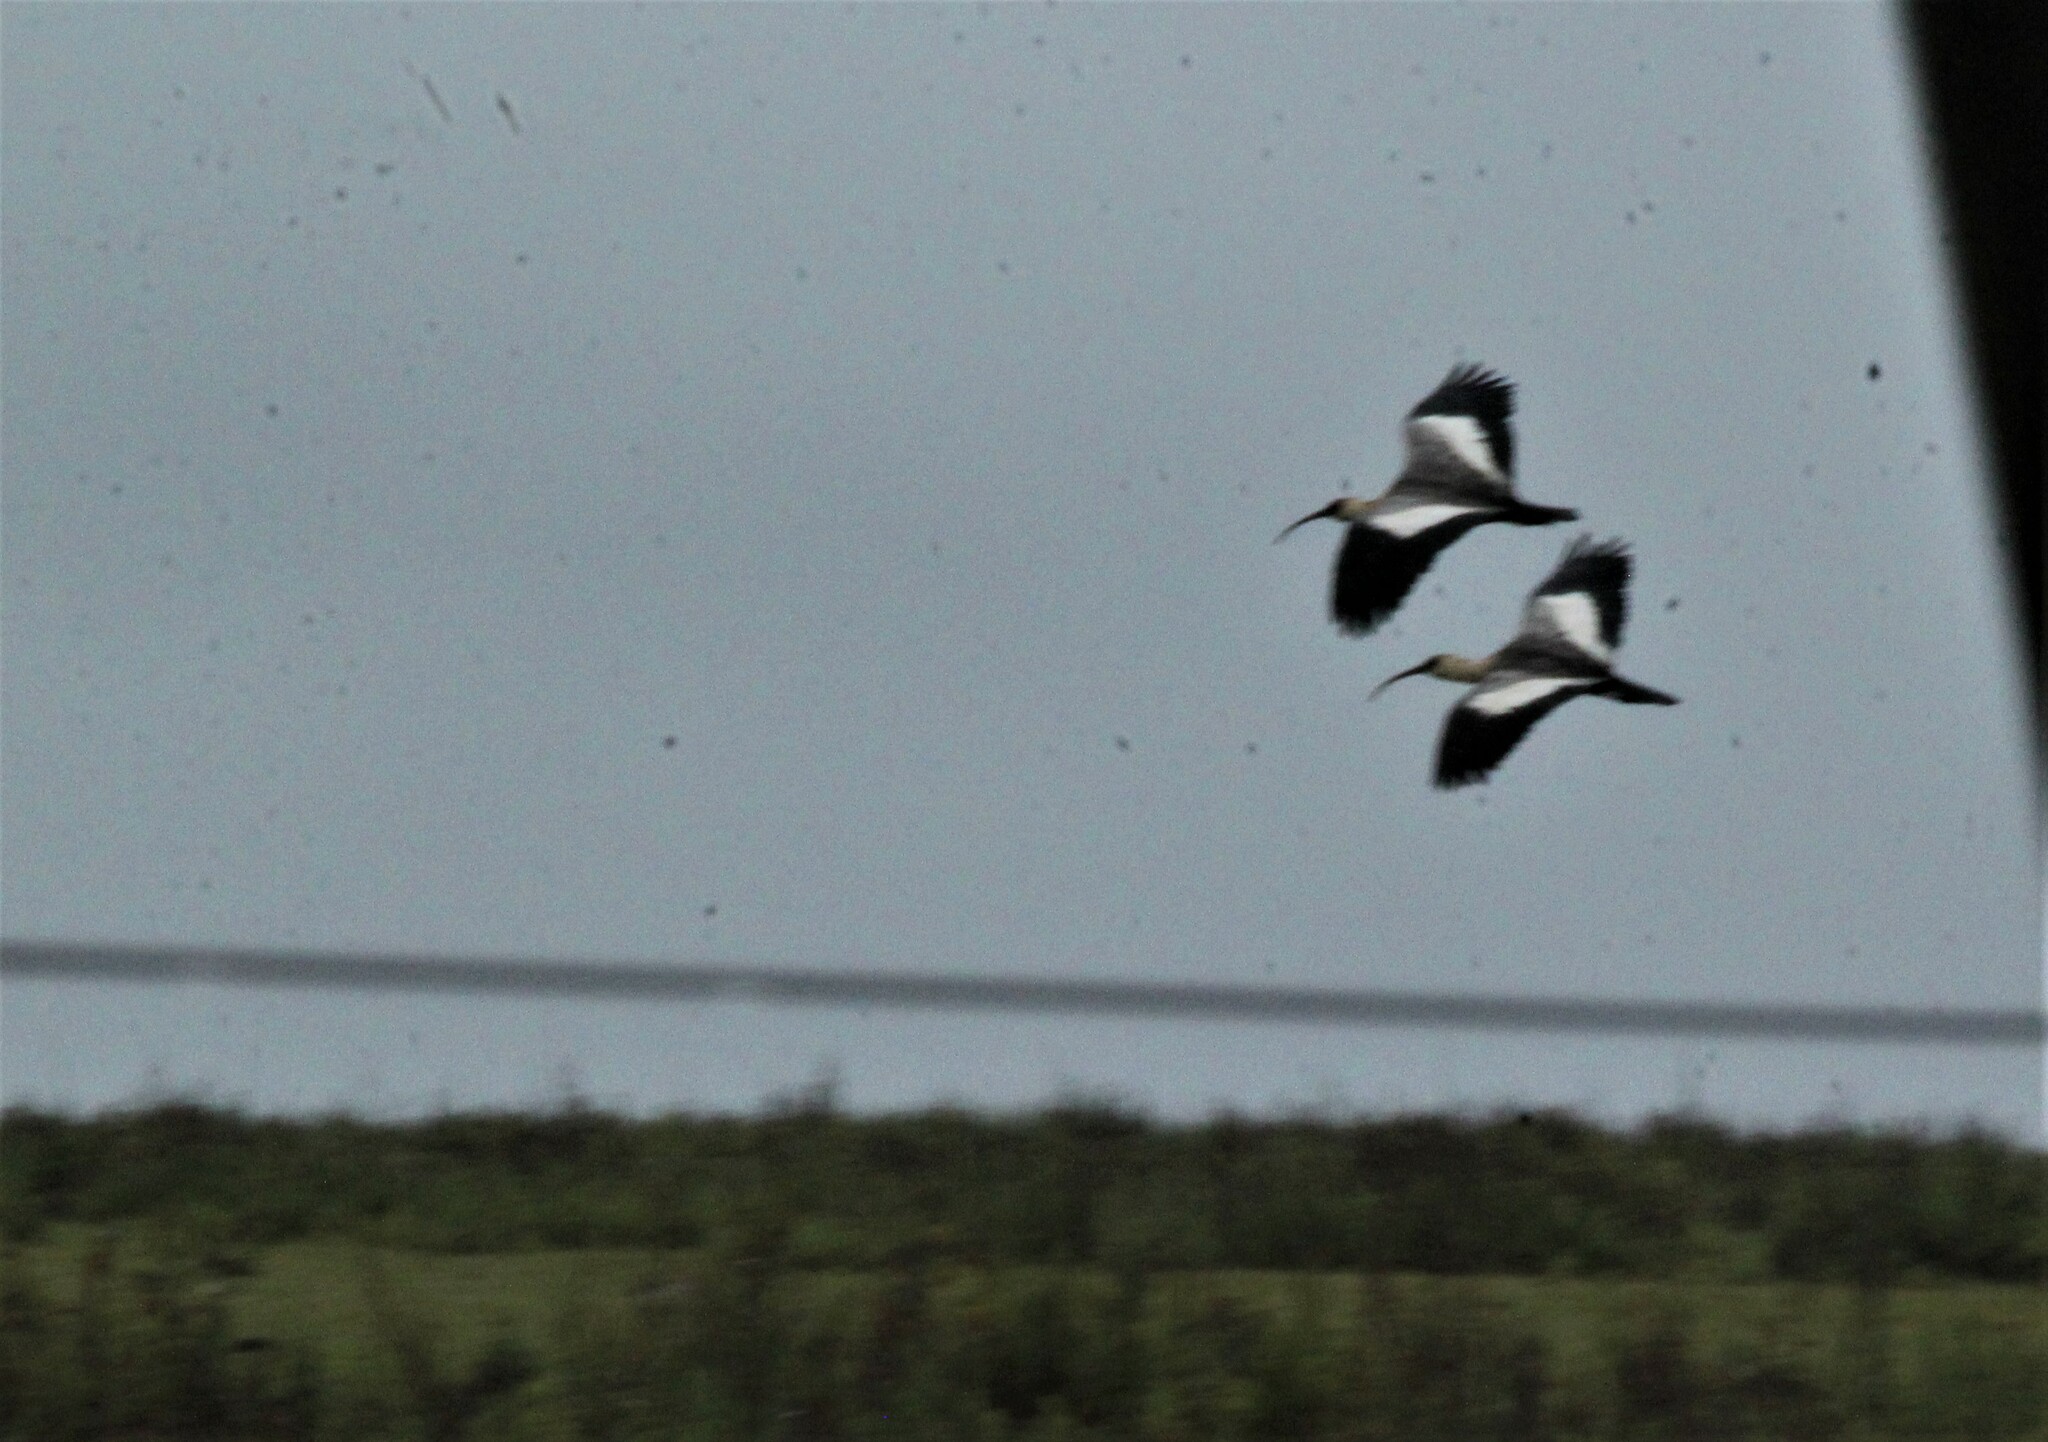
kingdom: Animalia
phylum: Chordata
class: Aves
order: Pelecaniformes
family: Threskiornithidae
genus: Theristicus
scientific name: Theristicus caudatus
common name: Buff-necked ibis
